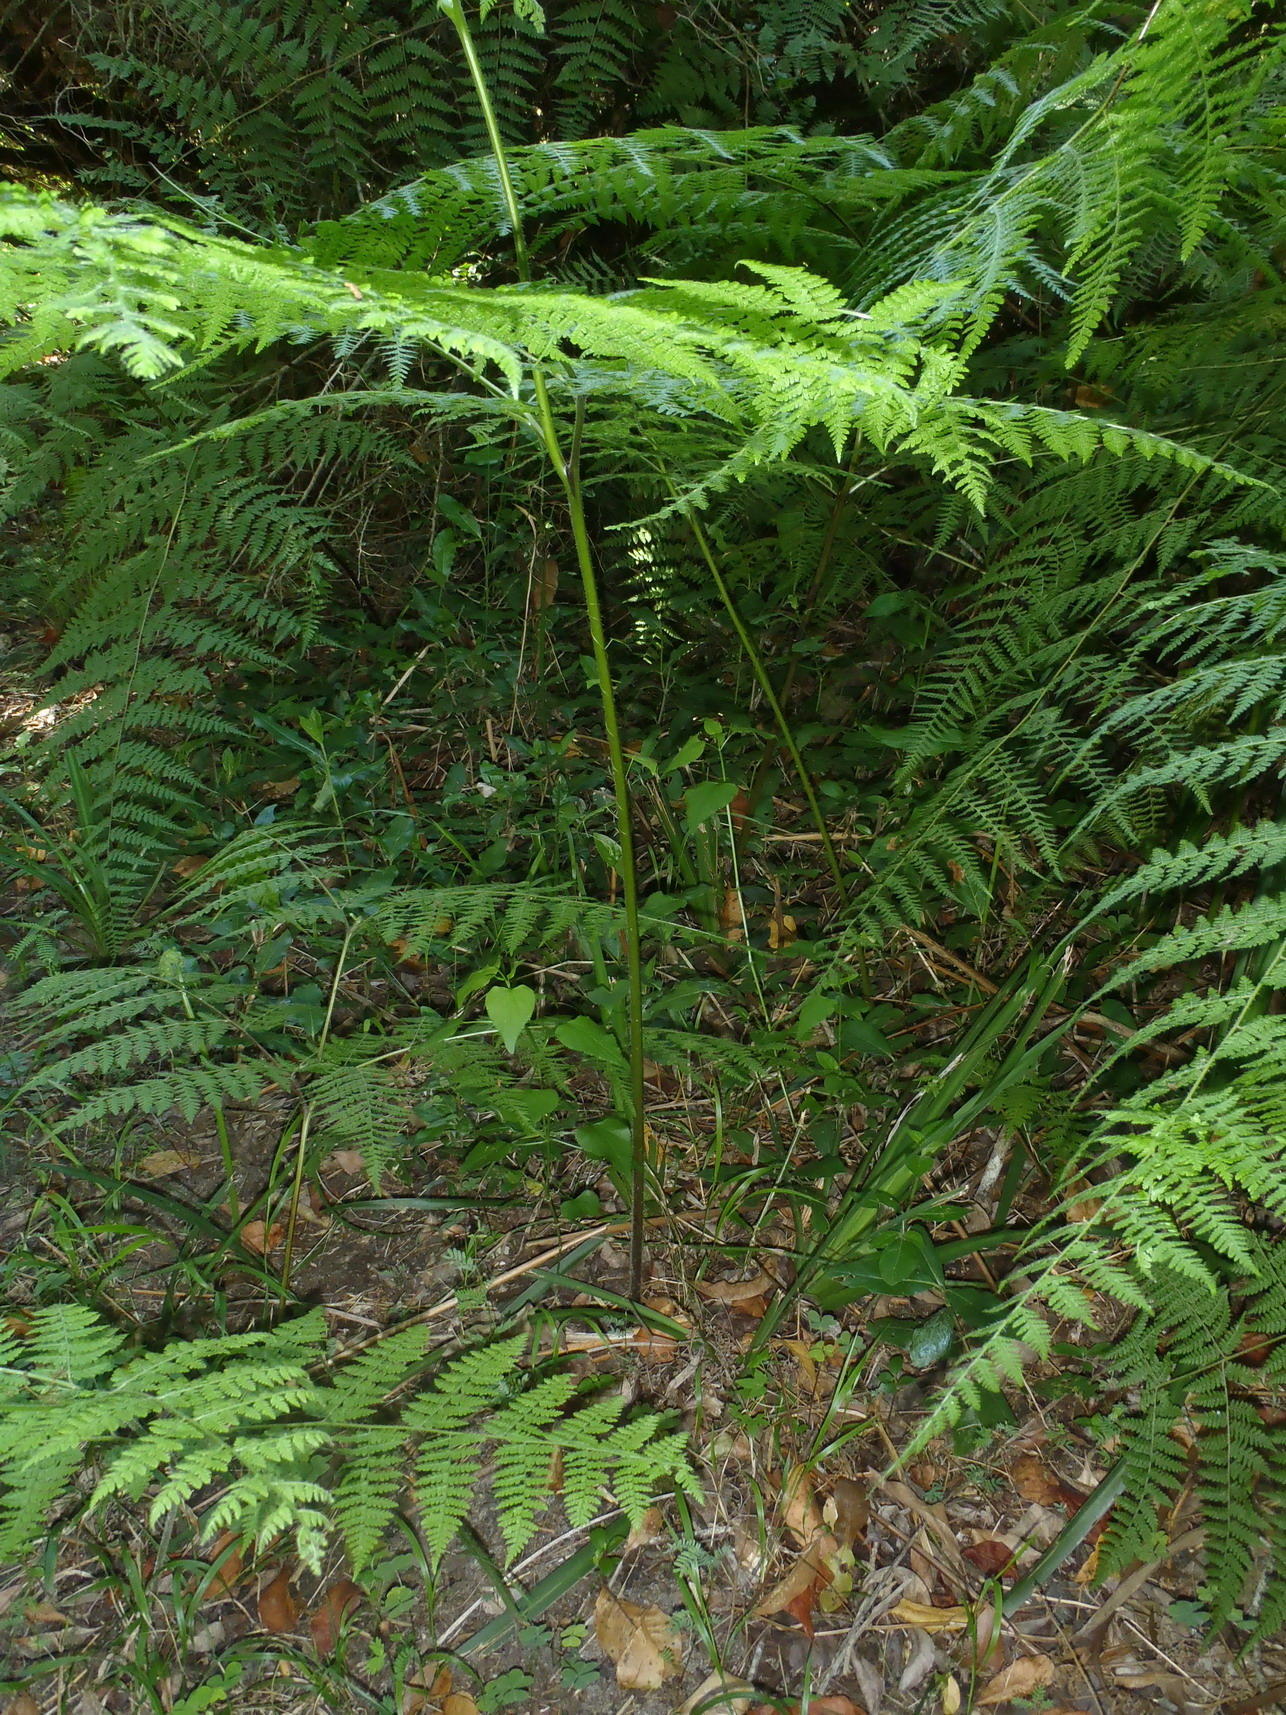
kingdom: Plantae
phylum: Tracheophyta
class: Polypodiopsida
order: Polypodiales
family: Dennstaedtiaceae
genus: Hypolepis
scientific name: Hypolepis sparsisora
